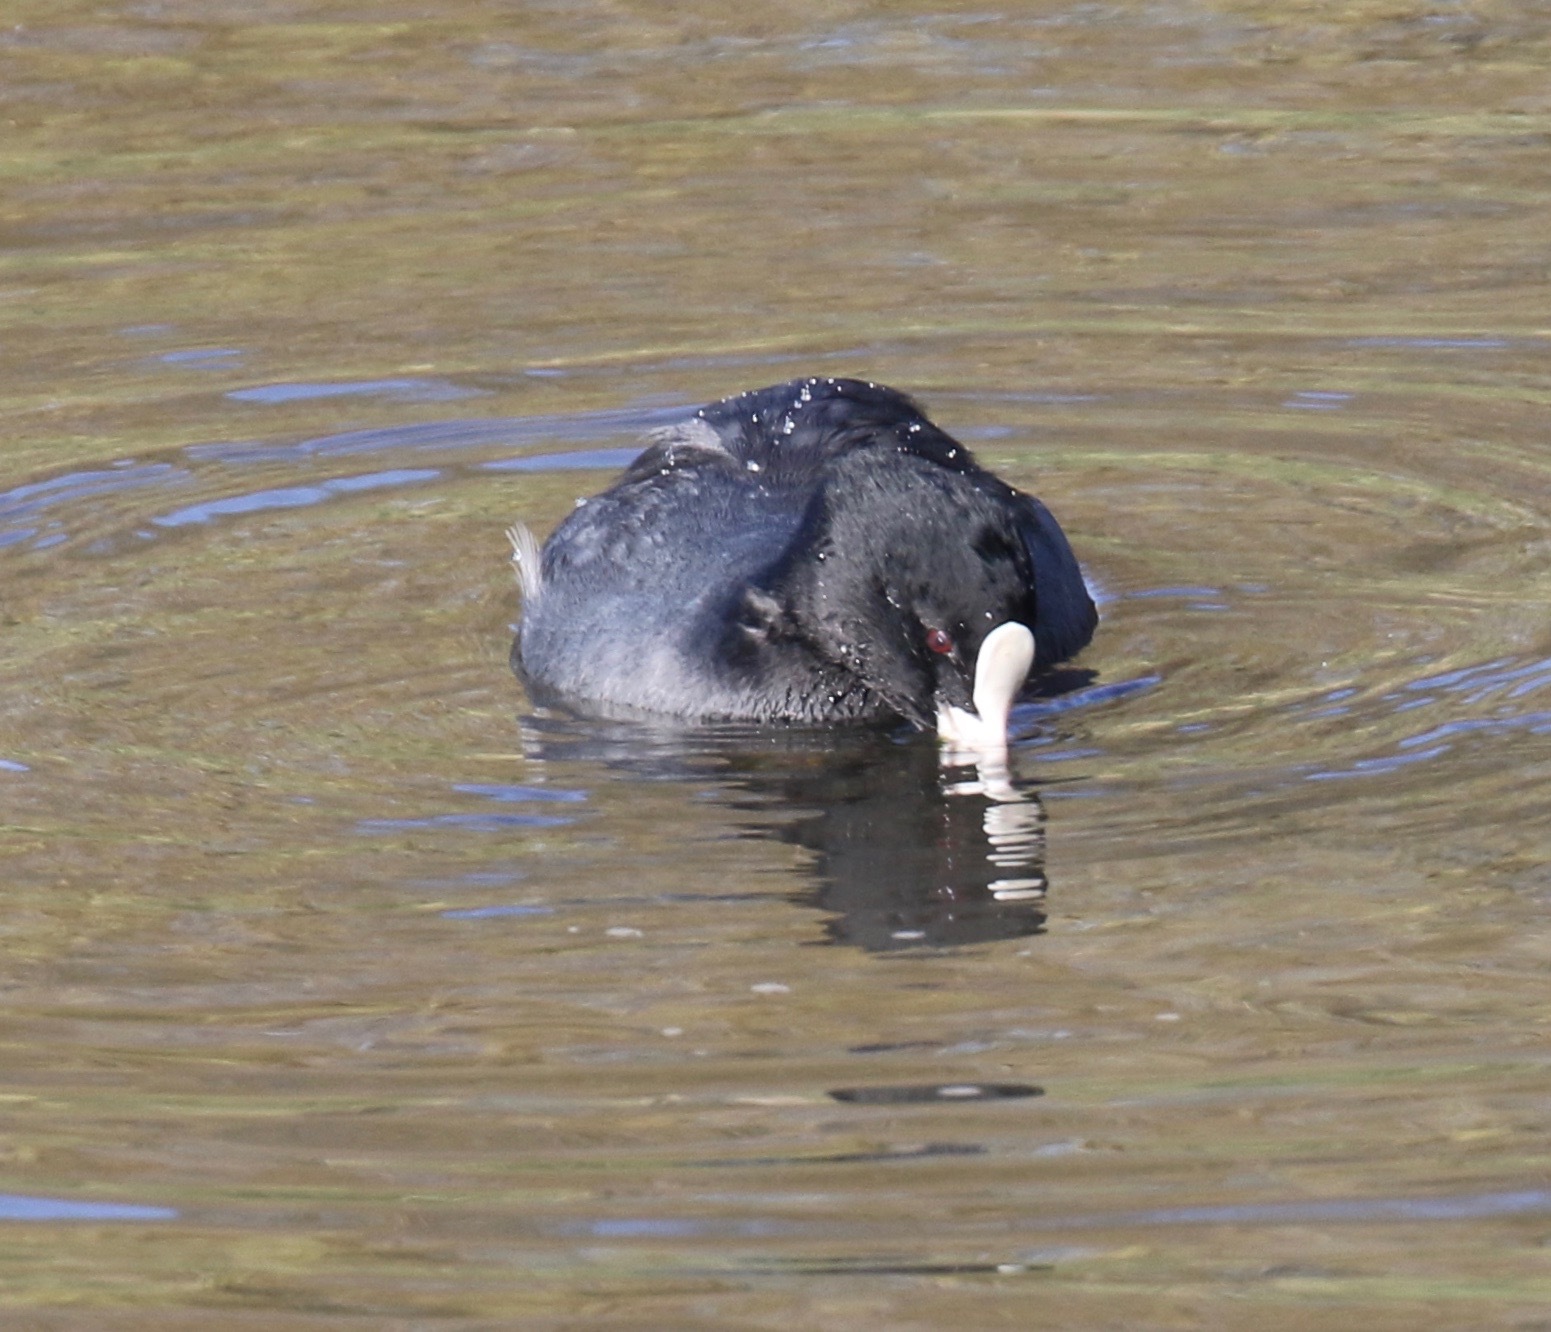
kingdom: Animalia
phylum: Chordata
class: Aves
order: Gruiformes
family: Rallidae
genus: Fulica
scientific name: Fulica atra
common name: Eurasian coot
